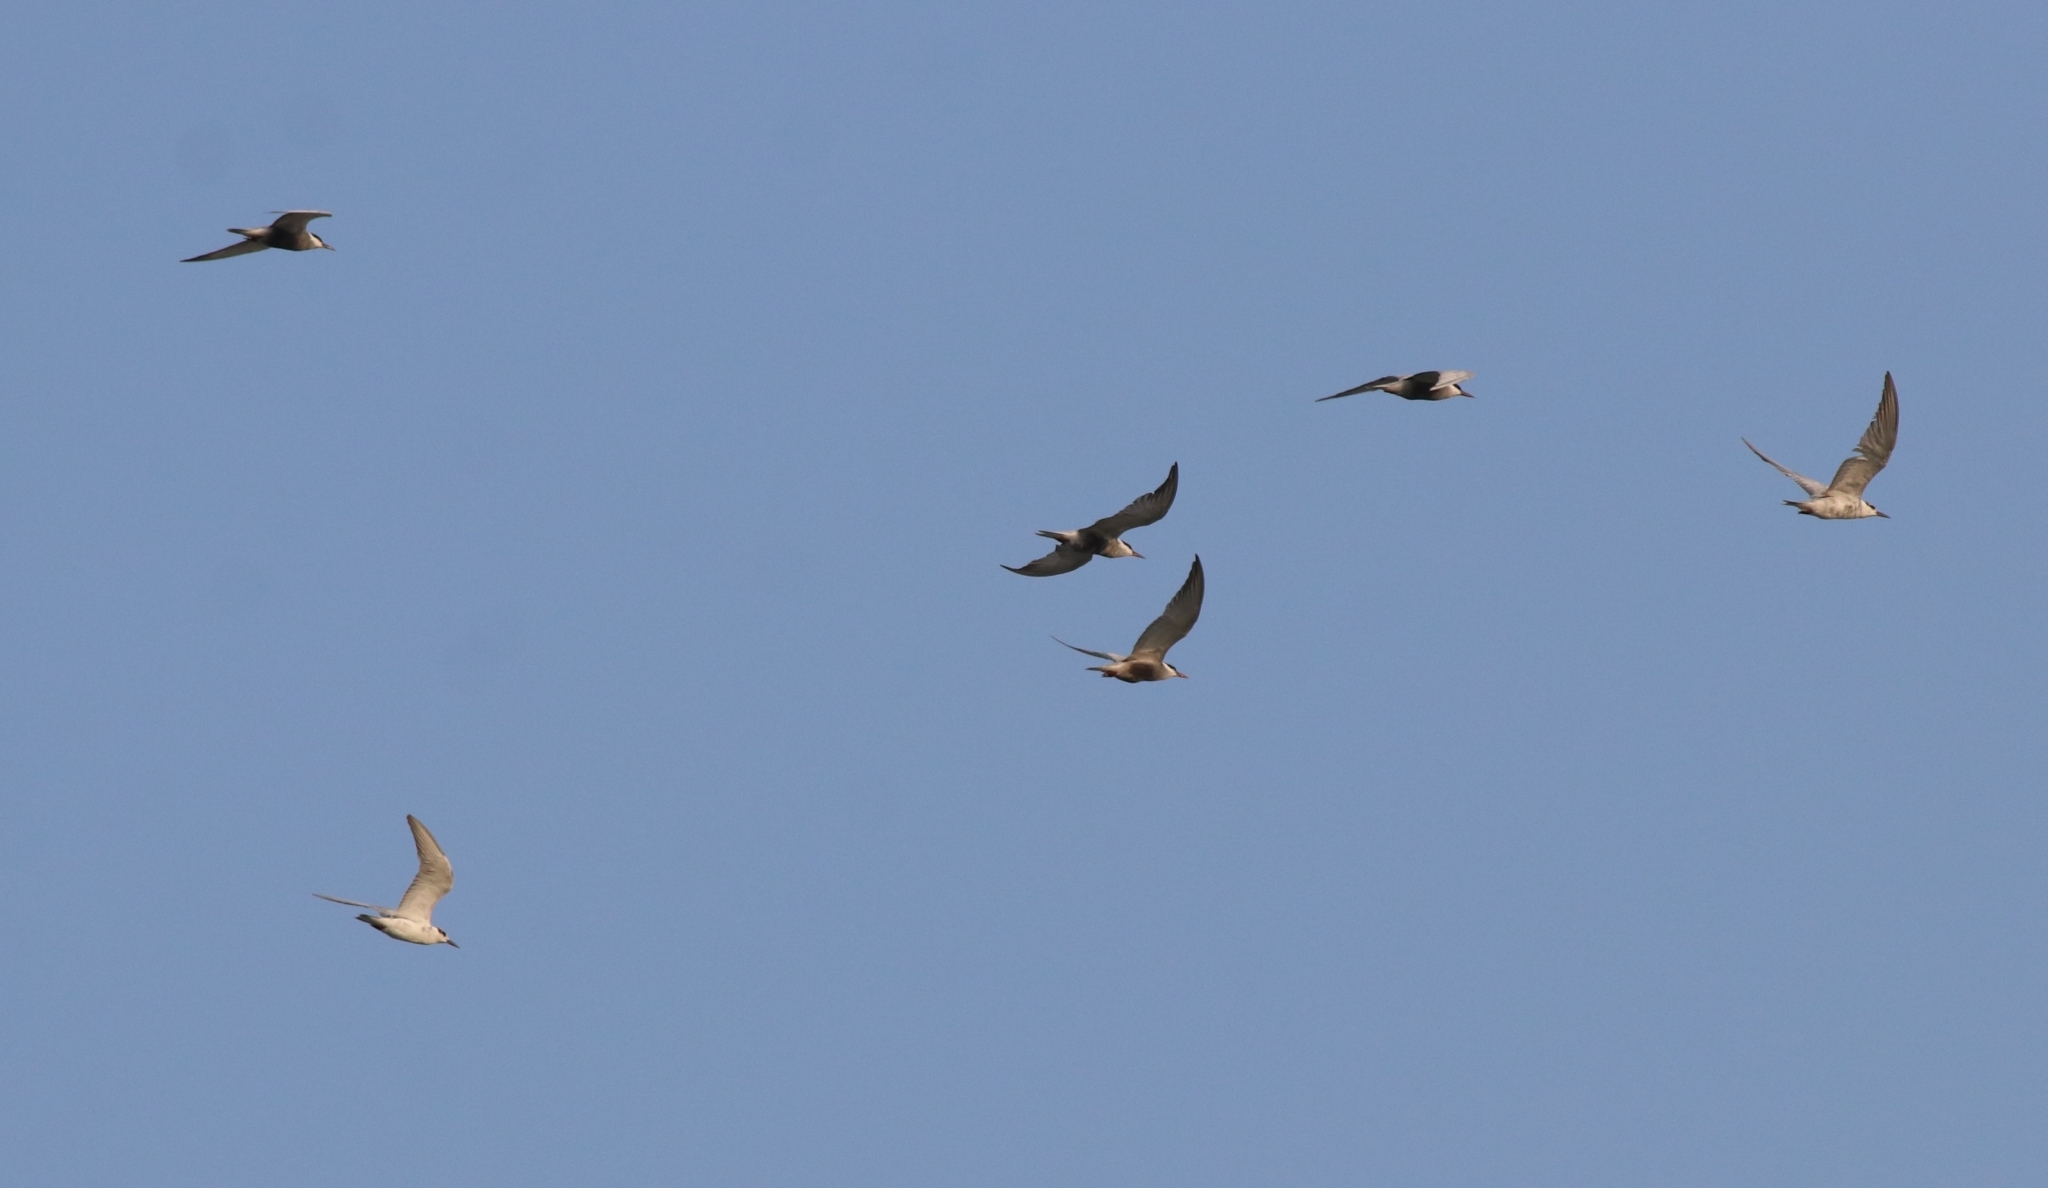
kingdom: Animalia
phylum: Chordata
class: Aves
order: Charadriiformes
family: Laridae
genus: Chlidonias
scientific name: Chlidonias hybrida
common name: Whiskered tern
